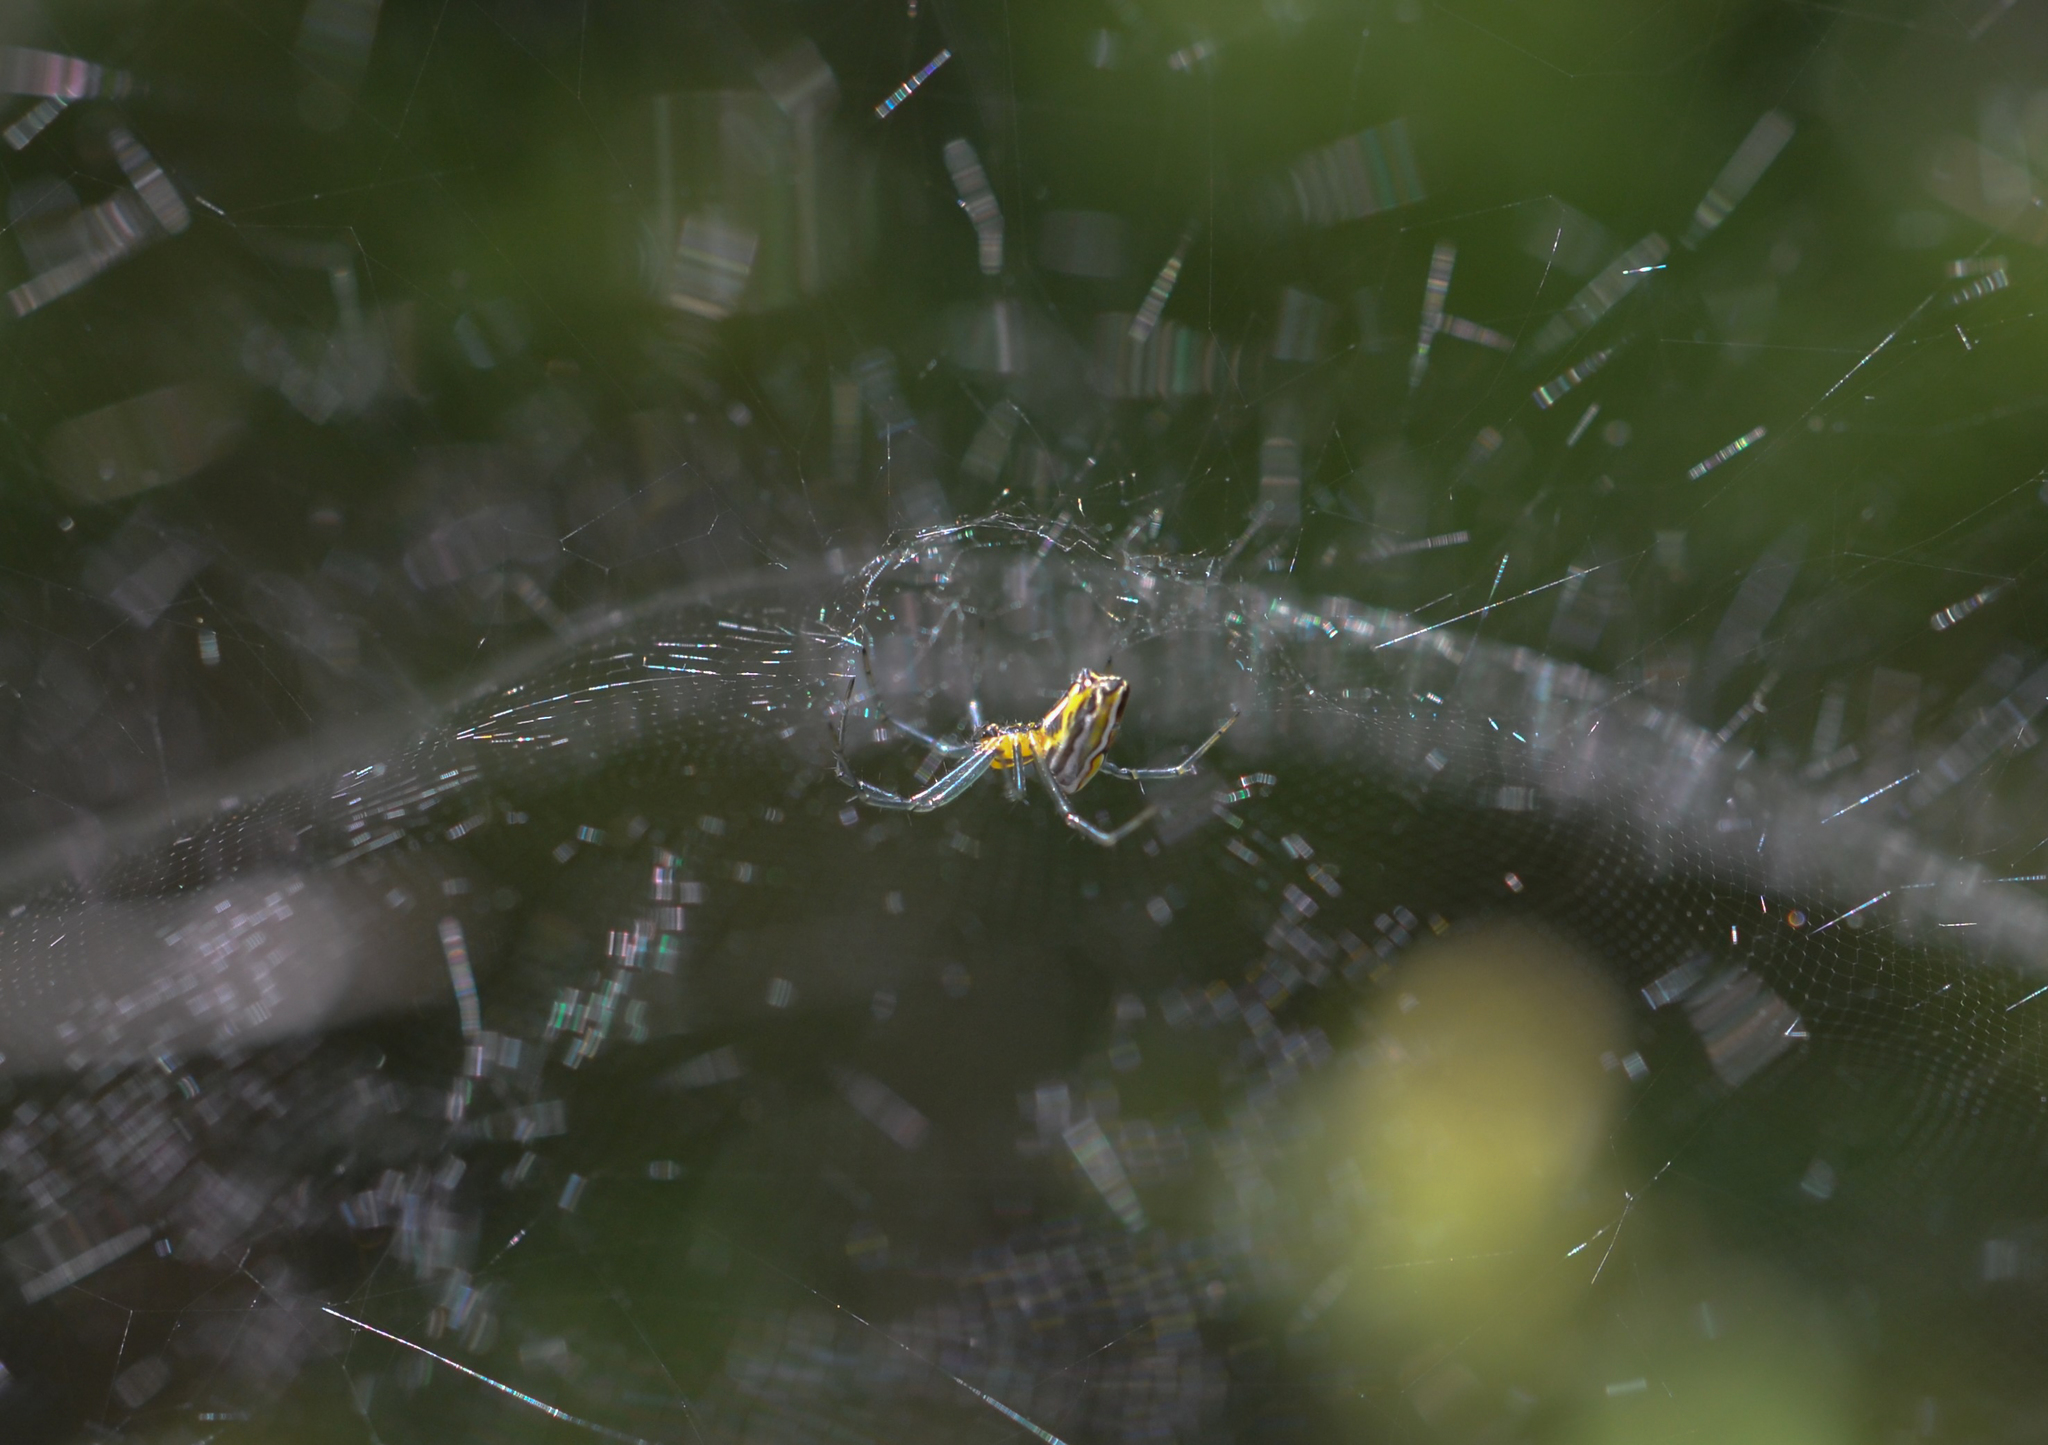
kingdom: Animalia
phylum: Arthropoda
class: Arachnida
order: Araneae
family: Araneidae
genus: Mecynogea
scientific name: Mecynogea lemniscata
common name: Orb weavers
